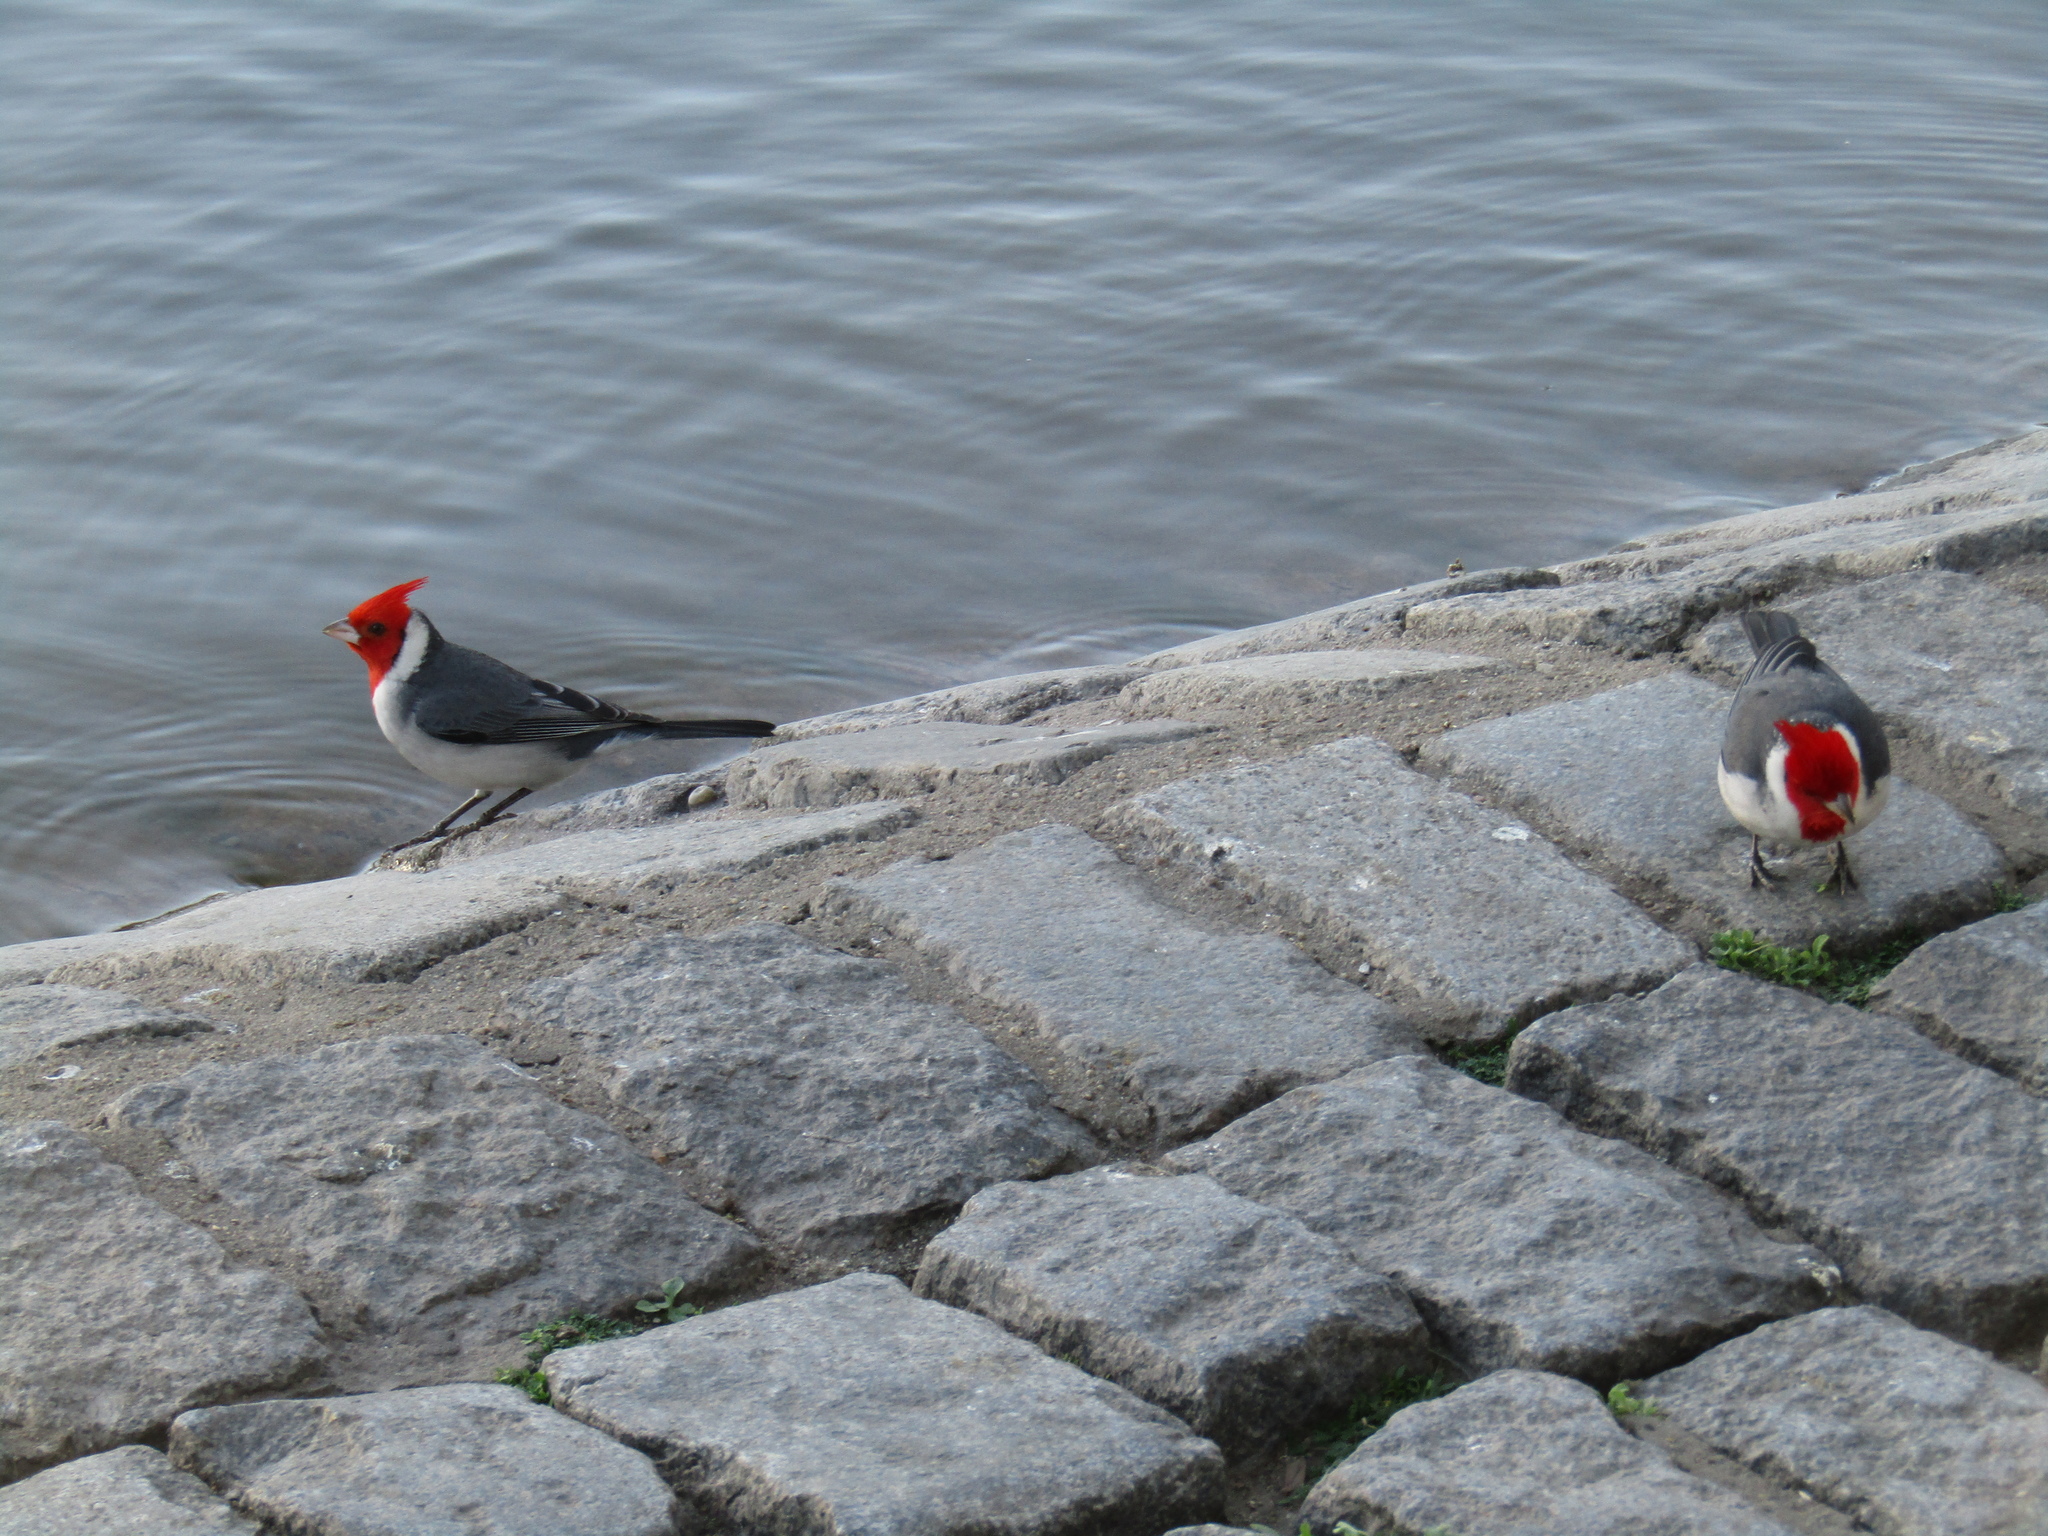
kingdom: Animalia
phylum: Chordata
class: Aves
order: Passeriformes
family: Thraupidae
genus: Paroaria
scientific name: Paroaria coronata
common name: Red-crested cardinal
